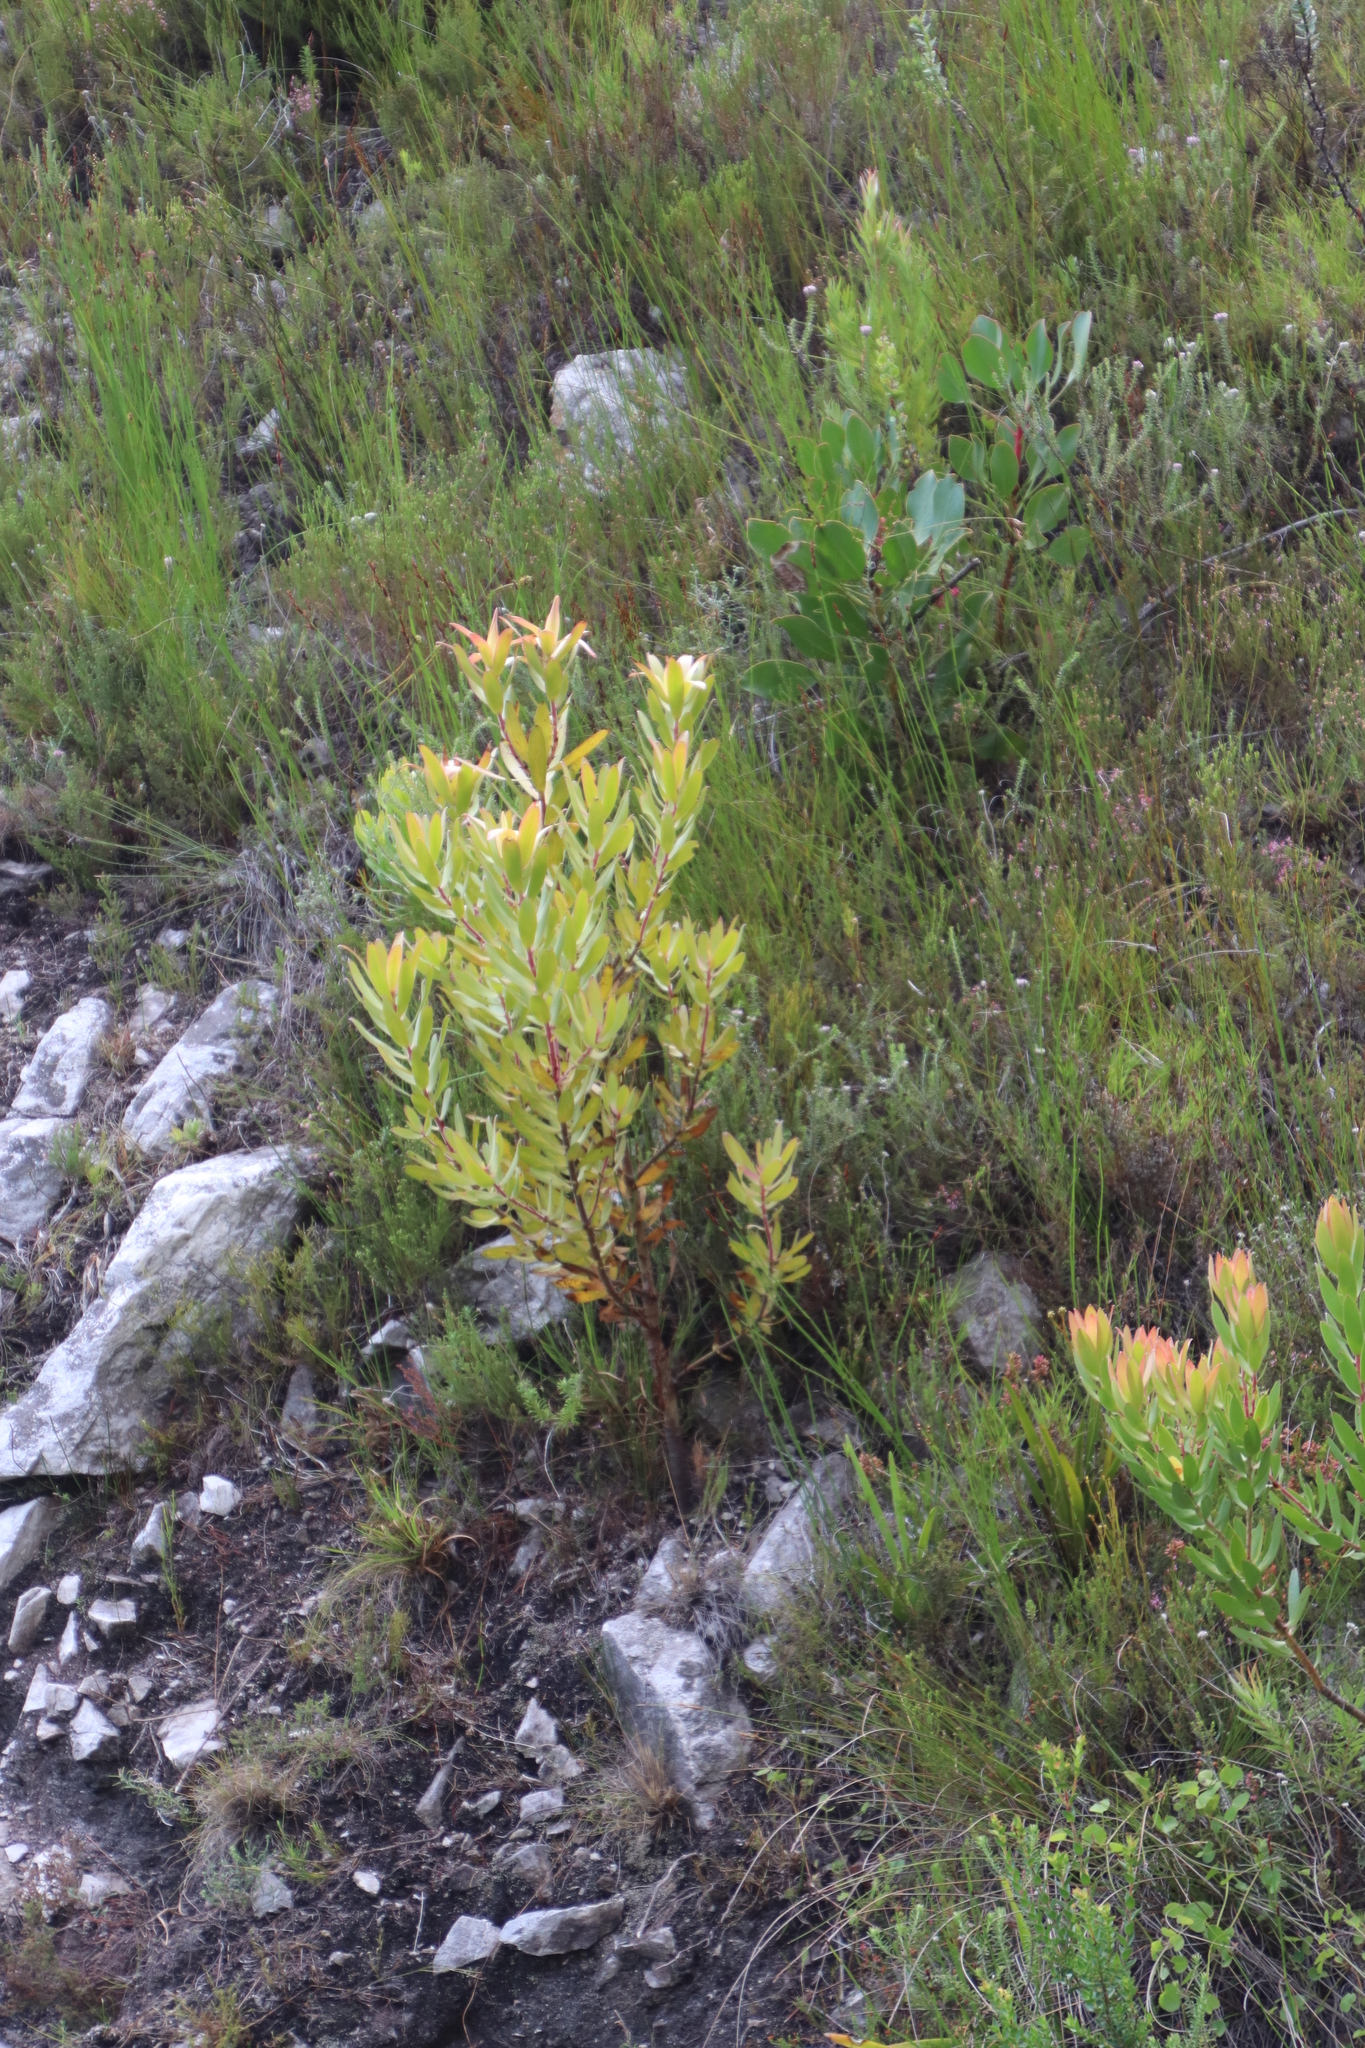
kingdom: Plantae
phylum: Tracheophyta
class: Magnoliopsida
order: Proteales
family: Proteaceae
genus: Leucadendron
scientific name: Leucadendron gandogeri
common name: Broad-leaf conebush
